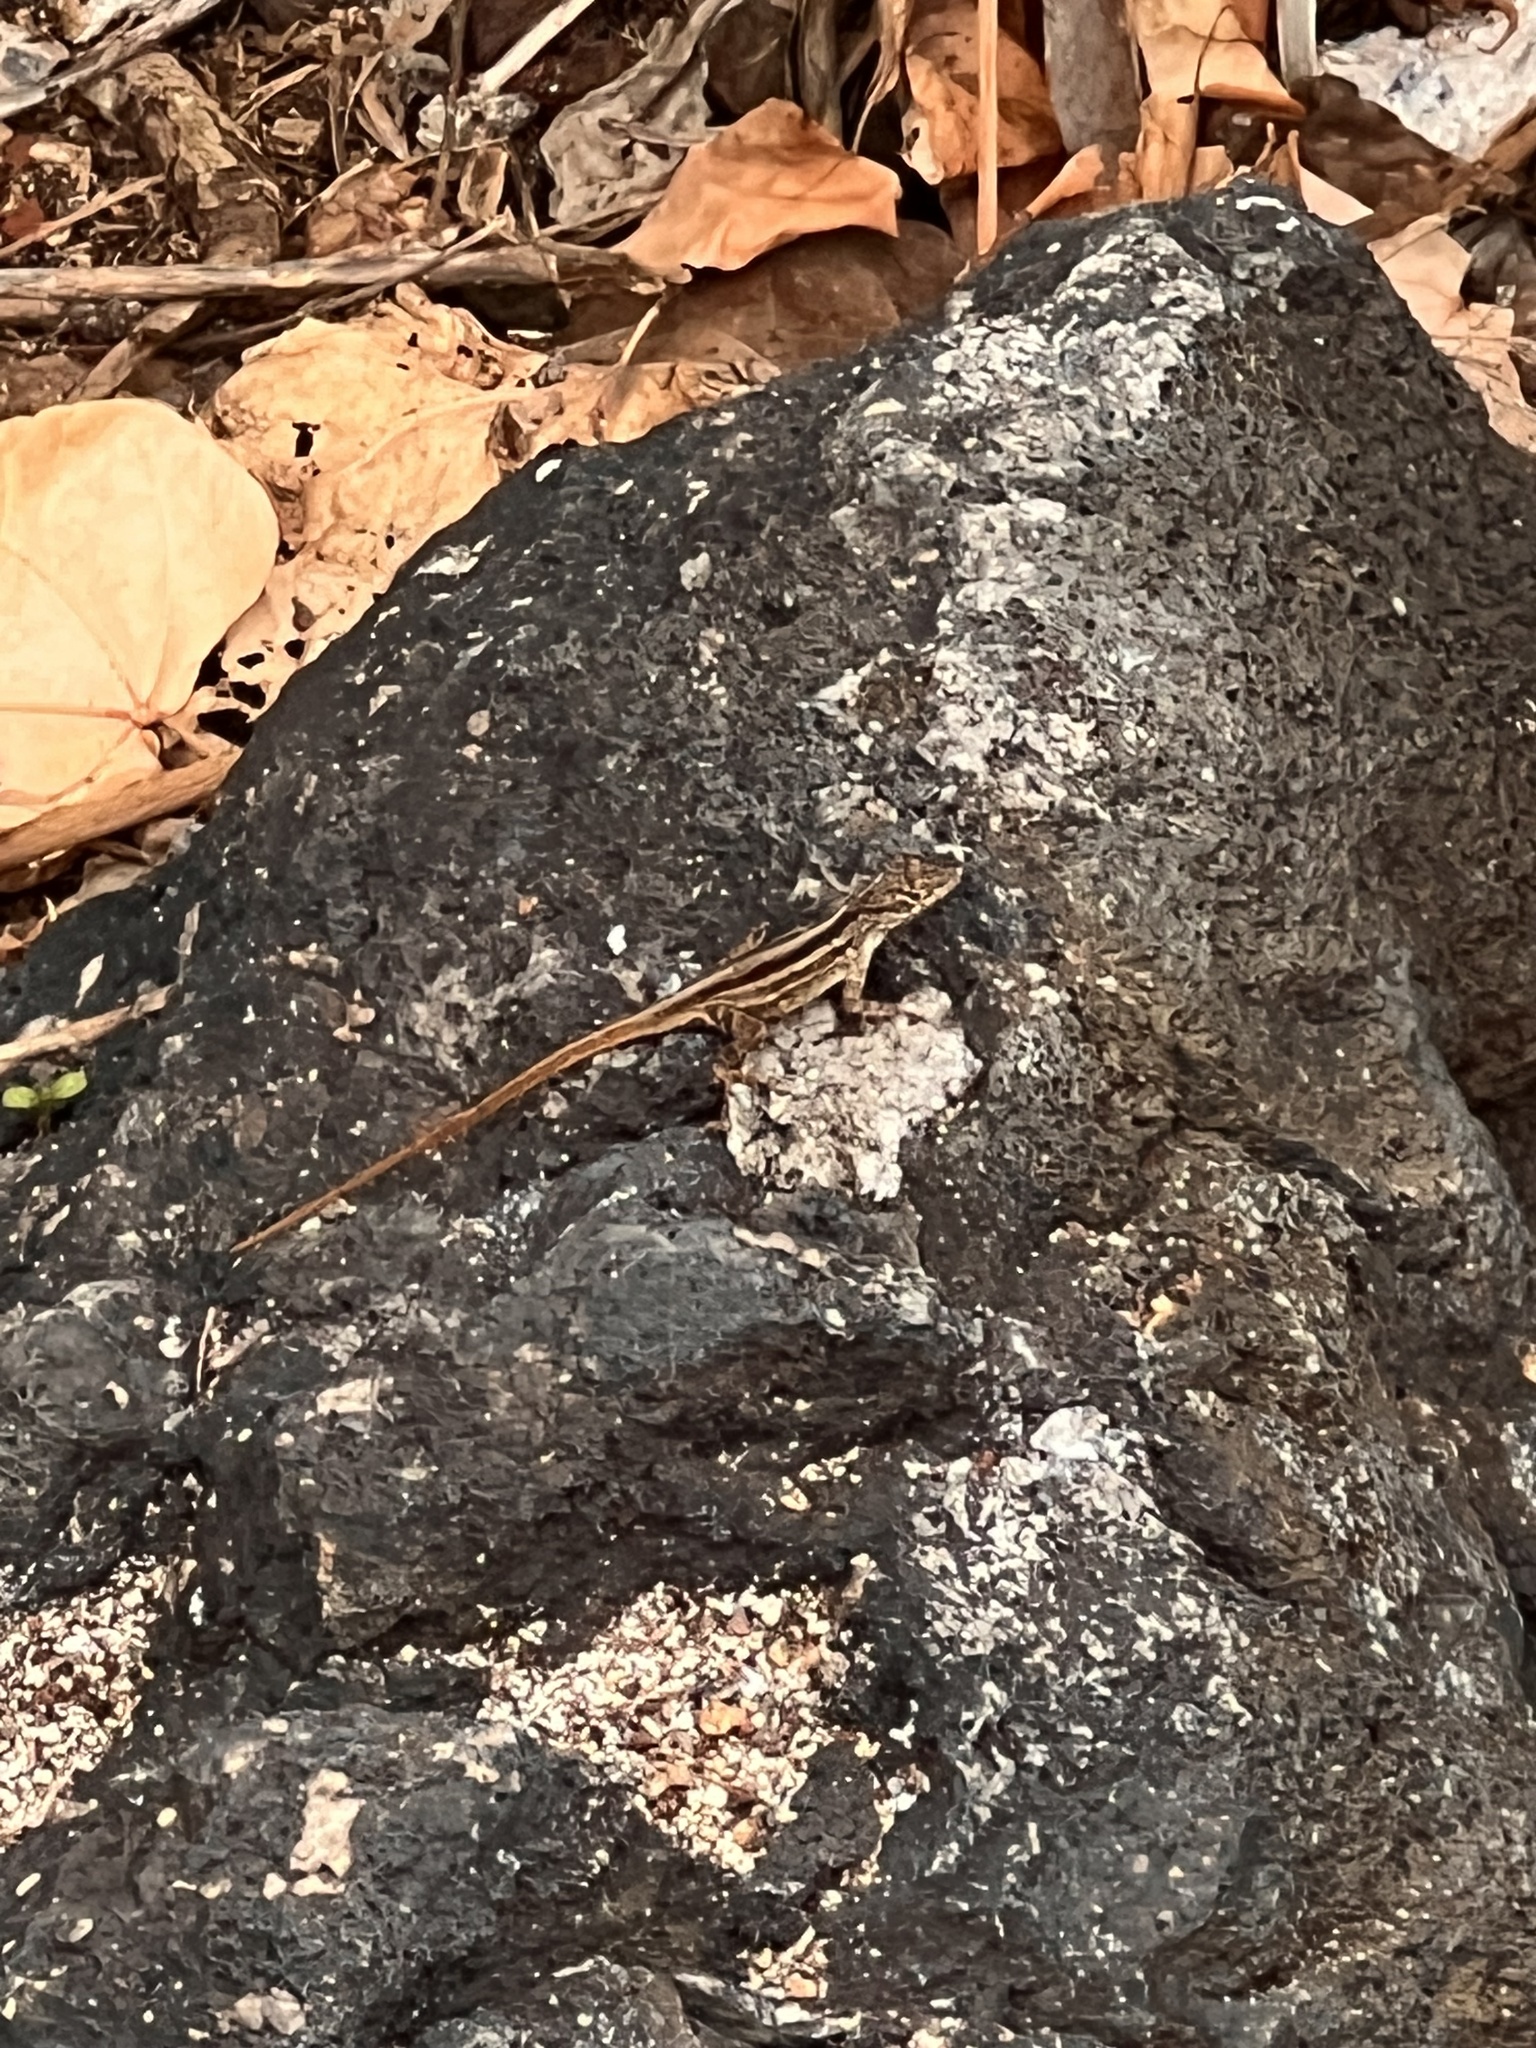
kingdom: Animalia
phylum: Chordata
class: Squamata
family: Dactyloidae
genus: Anolis
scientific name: Anolis sagrei
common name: Brown anole
